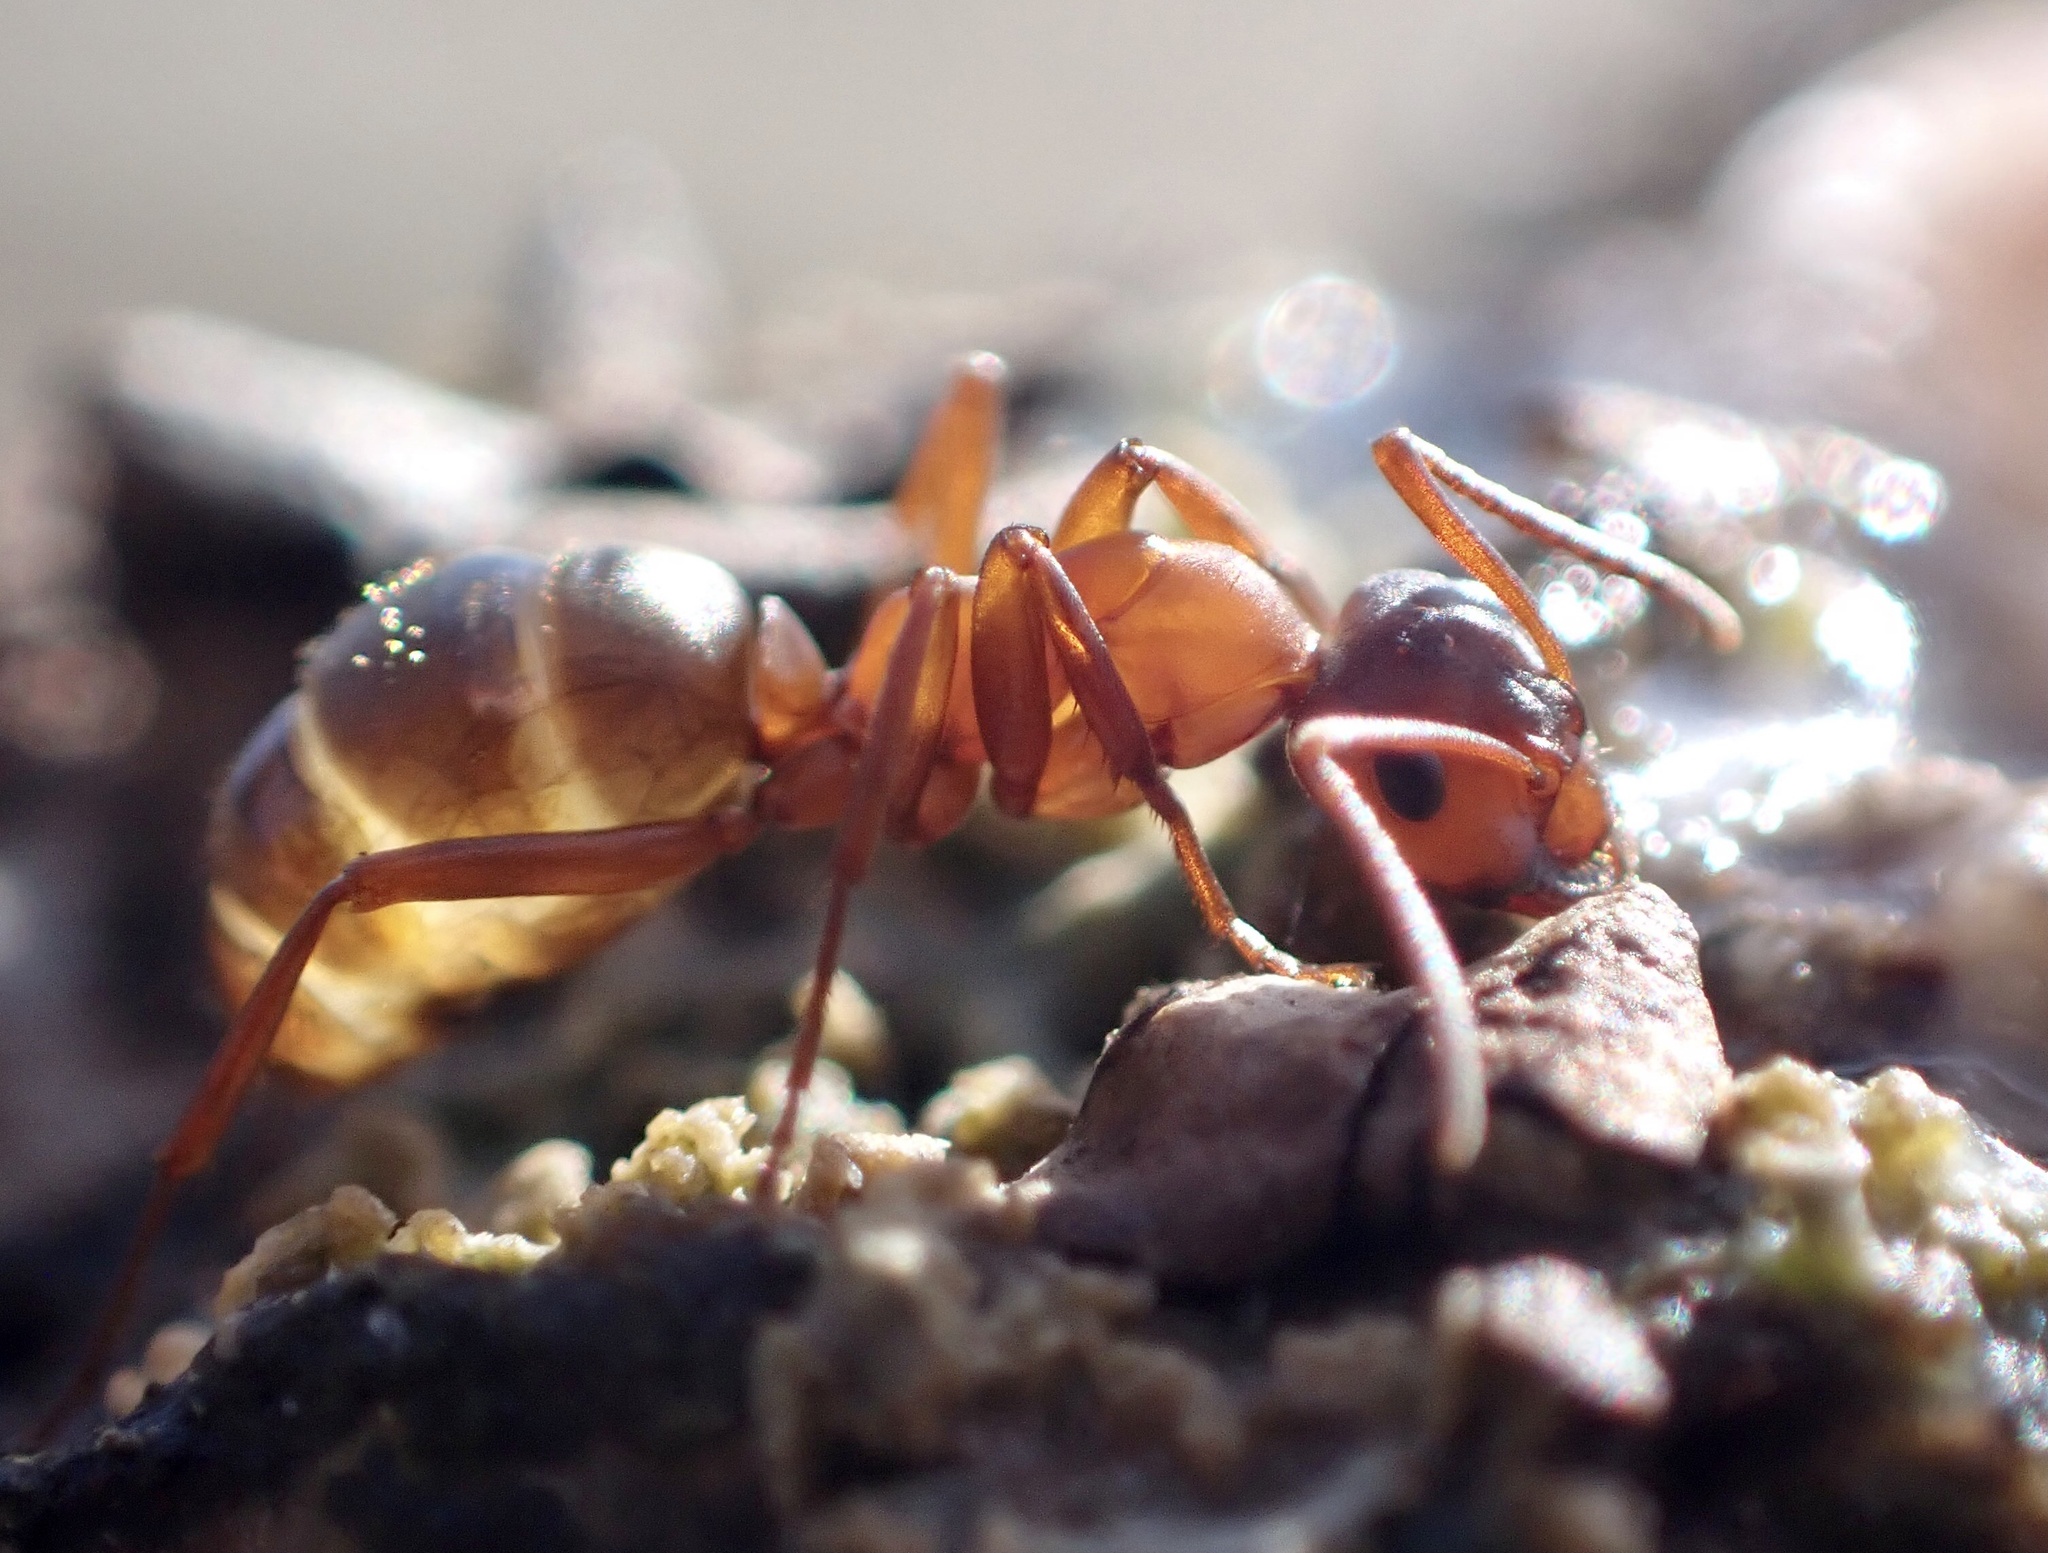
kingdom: Animalia
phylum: Arthropoda
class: Insecta
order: Hymenoptera
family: Formicidae
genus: Formica
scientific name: Formica sanguinea
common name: Blood-red ant
